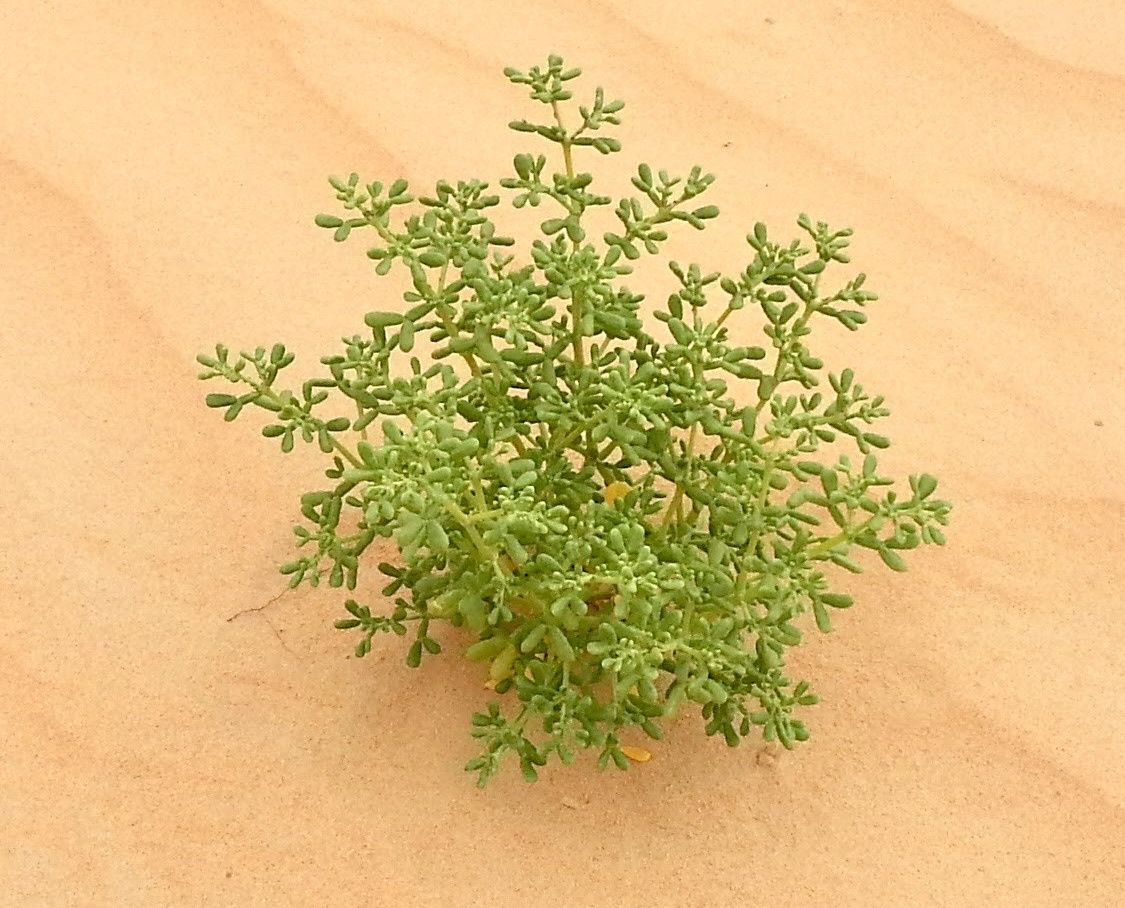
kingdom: Plantae
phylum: Tracheophyta
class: Magnoliopsida
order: Zygophyllales
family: Zygophyllaceae
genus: Tetraena
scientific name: Tetraena hamiensis
